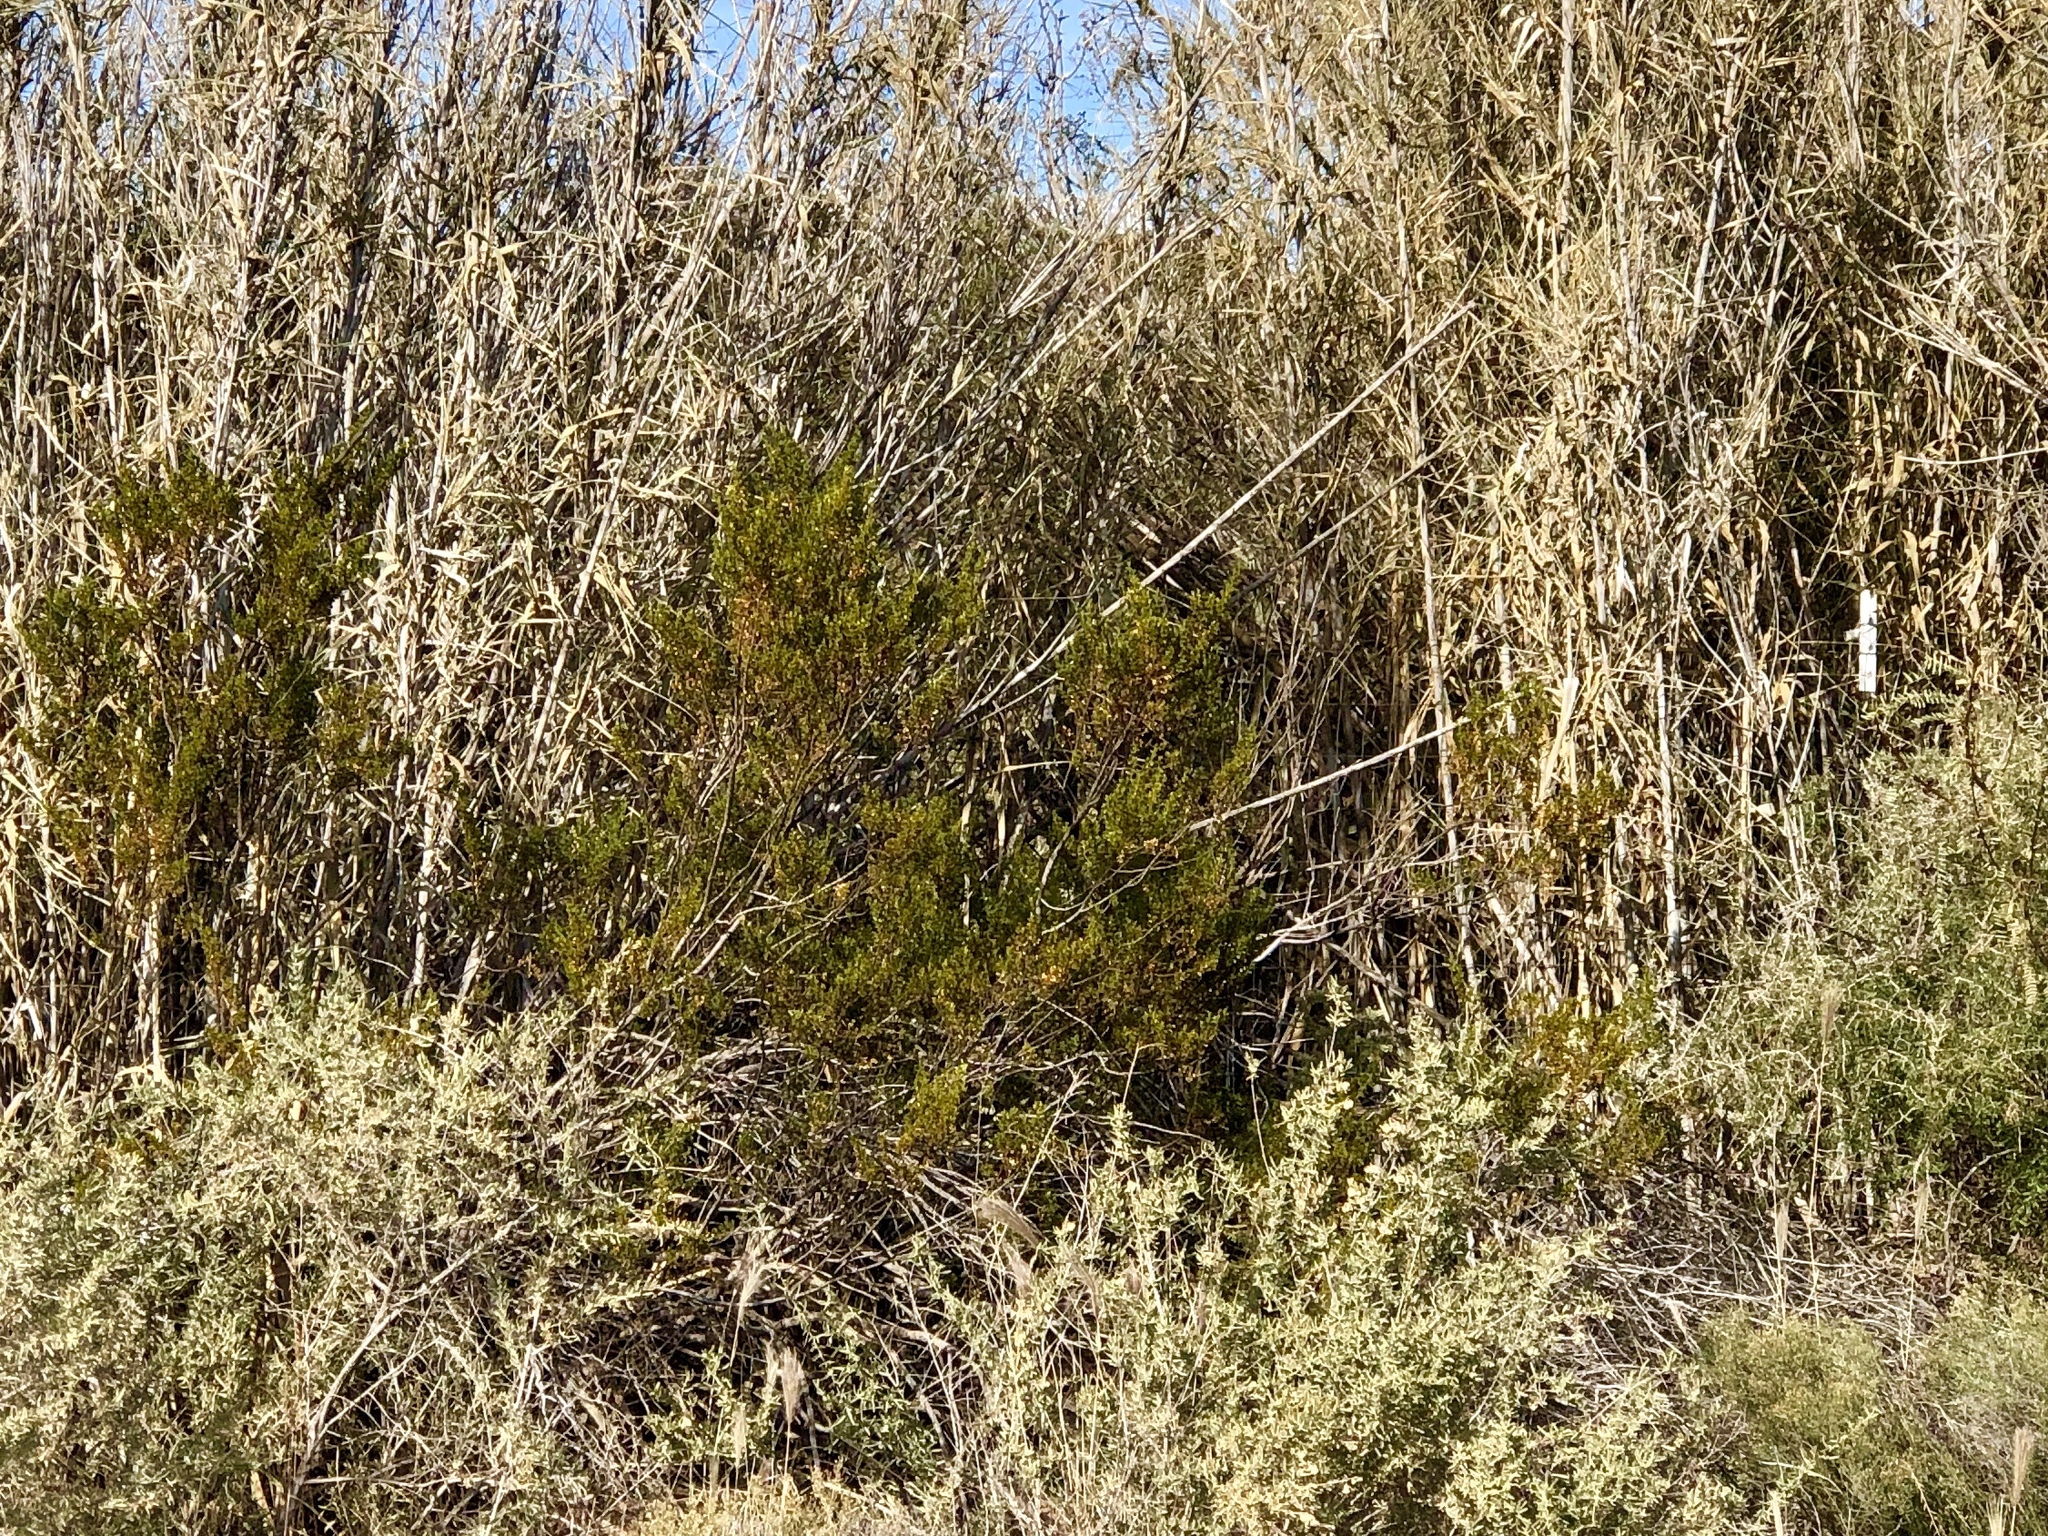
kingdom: Plantae
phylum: Tracheophyta
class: Magnoliopsida
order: Zygophyllales
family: Zygophyllaceae
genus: Larrea
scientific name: Larrea tridentata
